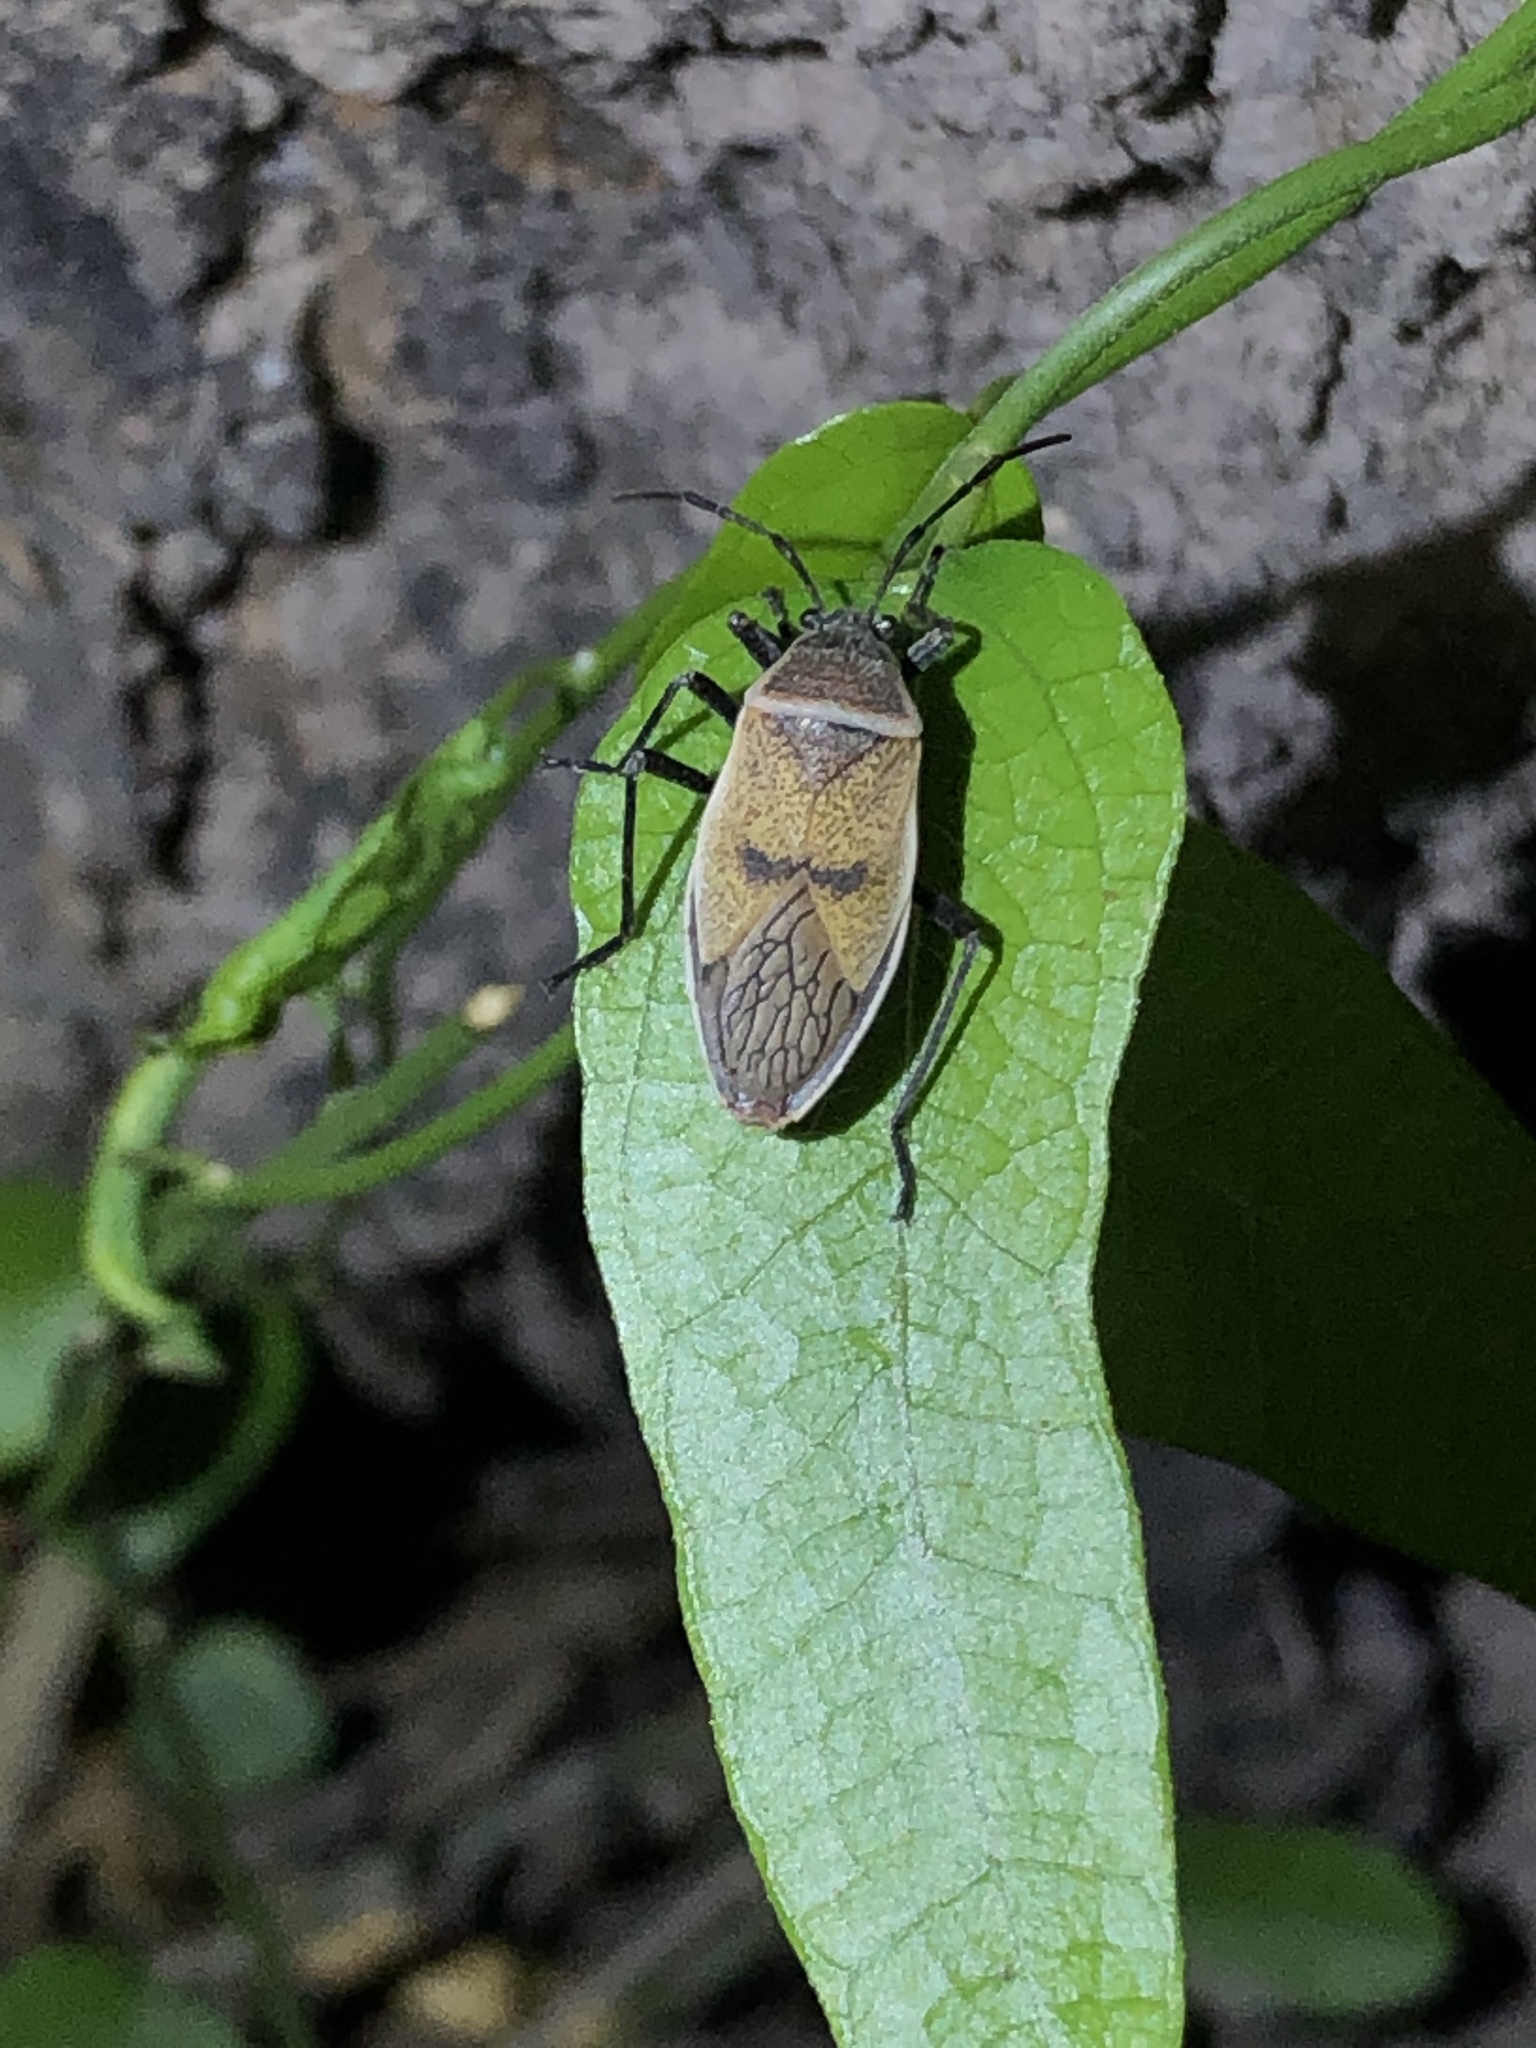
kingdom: Animalia
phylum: Arthropoda
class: Insecta
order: Hemiptera
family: Largidae
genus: Largus
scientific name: Largus maculatus
